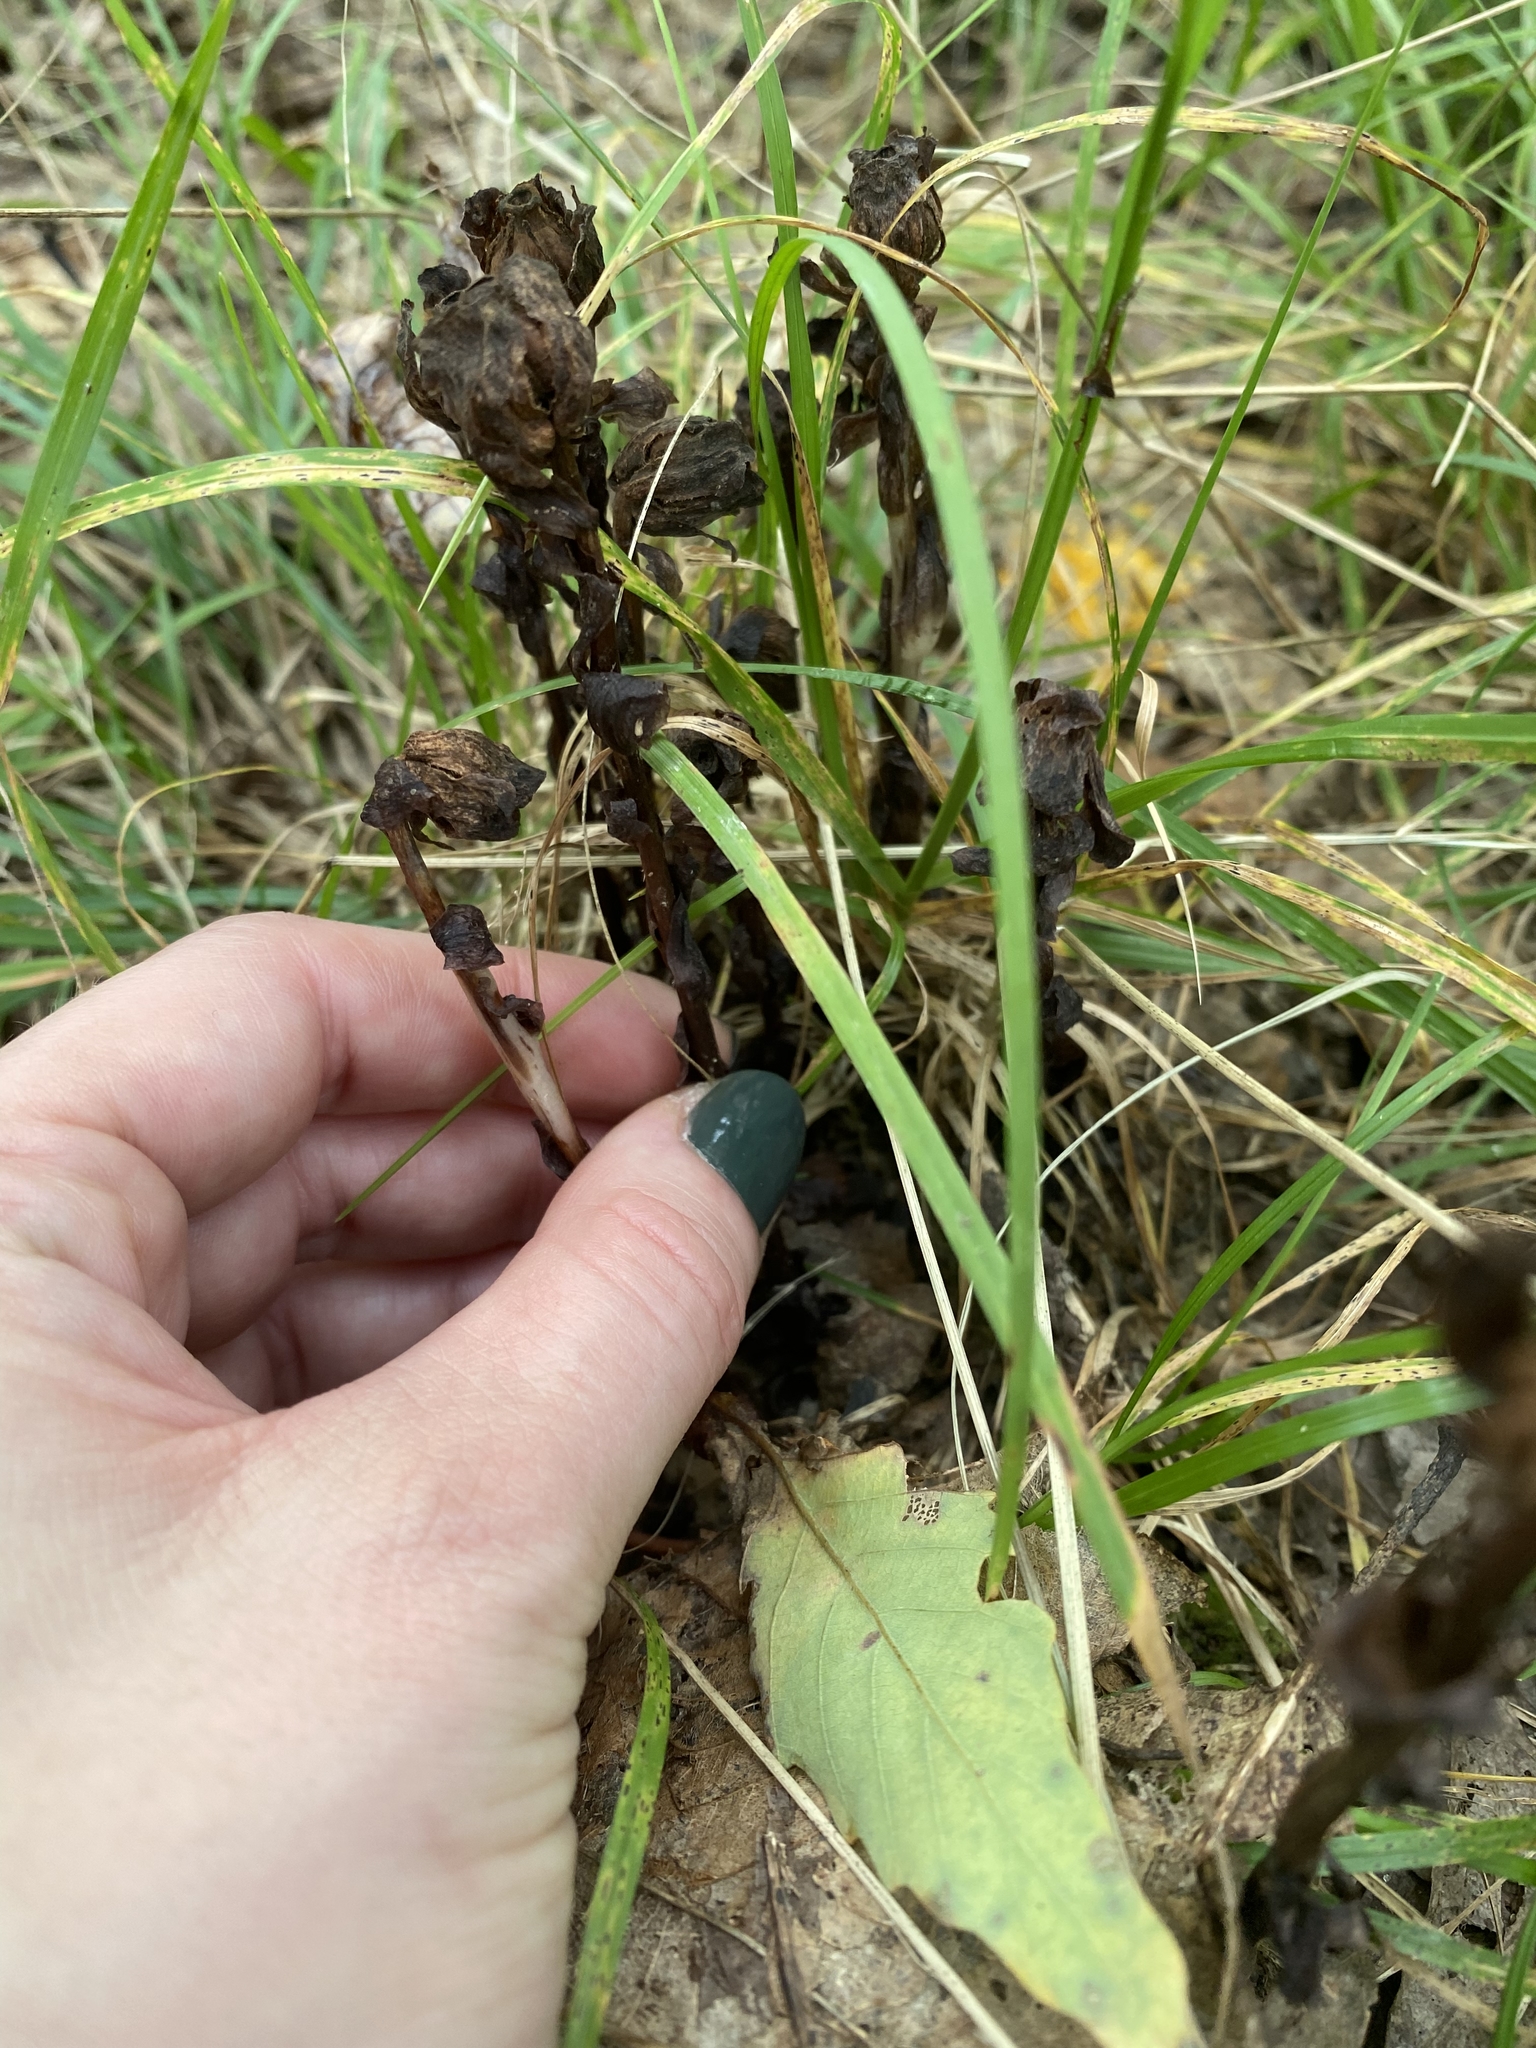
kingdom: Plantae
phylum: Tracheophyta
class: Magnoliopsida
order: Ericales
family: Ericaceae
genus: Monotropa
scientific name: Monotropa uniflora
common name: Convulsion root
